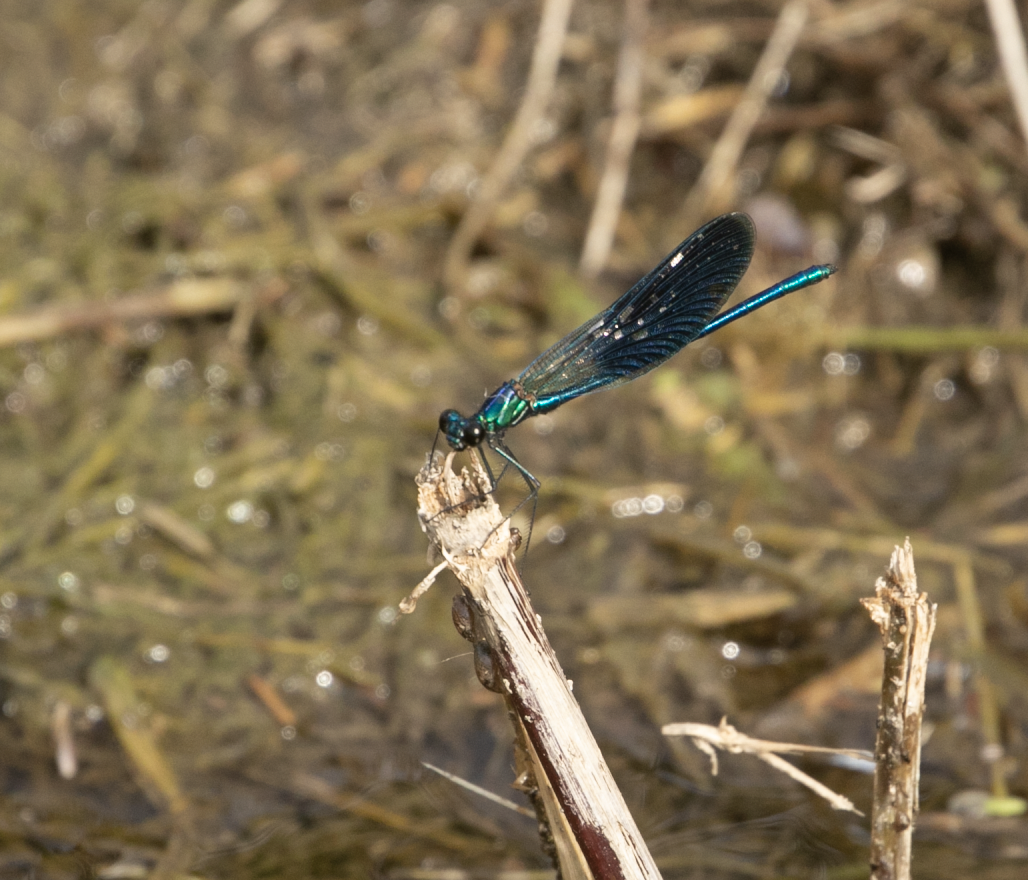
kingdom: Animalia
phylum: Arthropoda
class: Insecta
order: Odonata
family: Calopterygidae
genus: Calopteryx
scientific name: Calopteryx splendens
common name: Banded demoiselle
